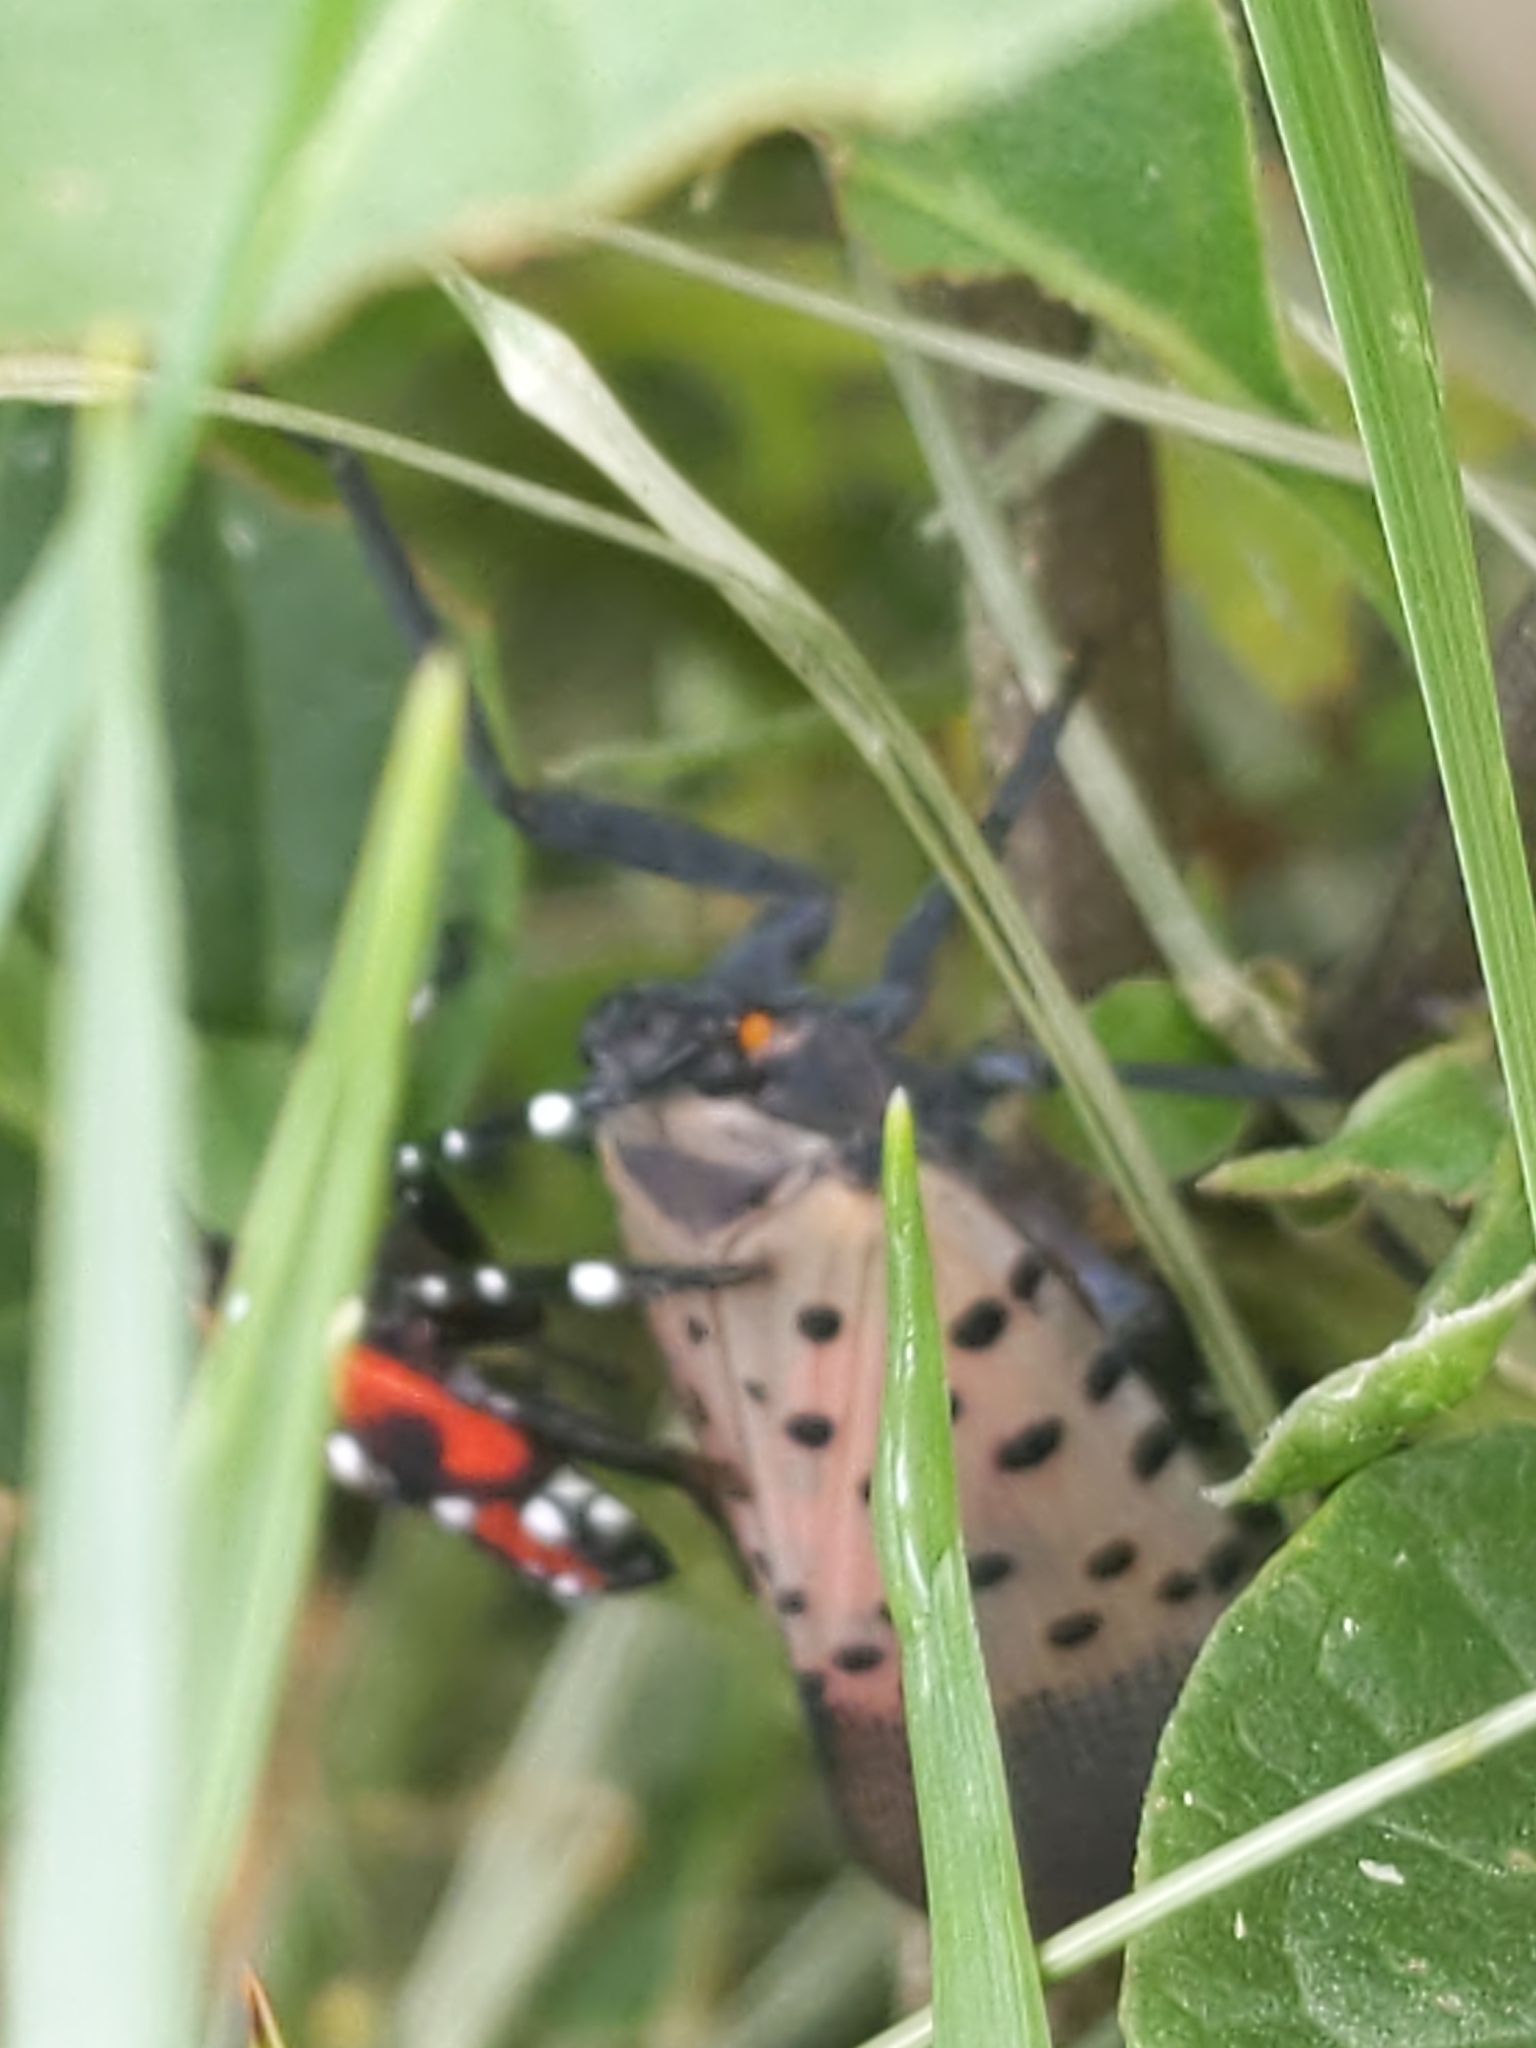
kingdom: Animalia
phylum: Arthropoda
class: Insecta
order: Hemiptera
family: Fulgoridae
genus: Lycorma
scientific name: Lycorma delicatula
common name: Spotted lanternfly
